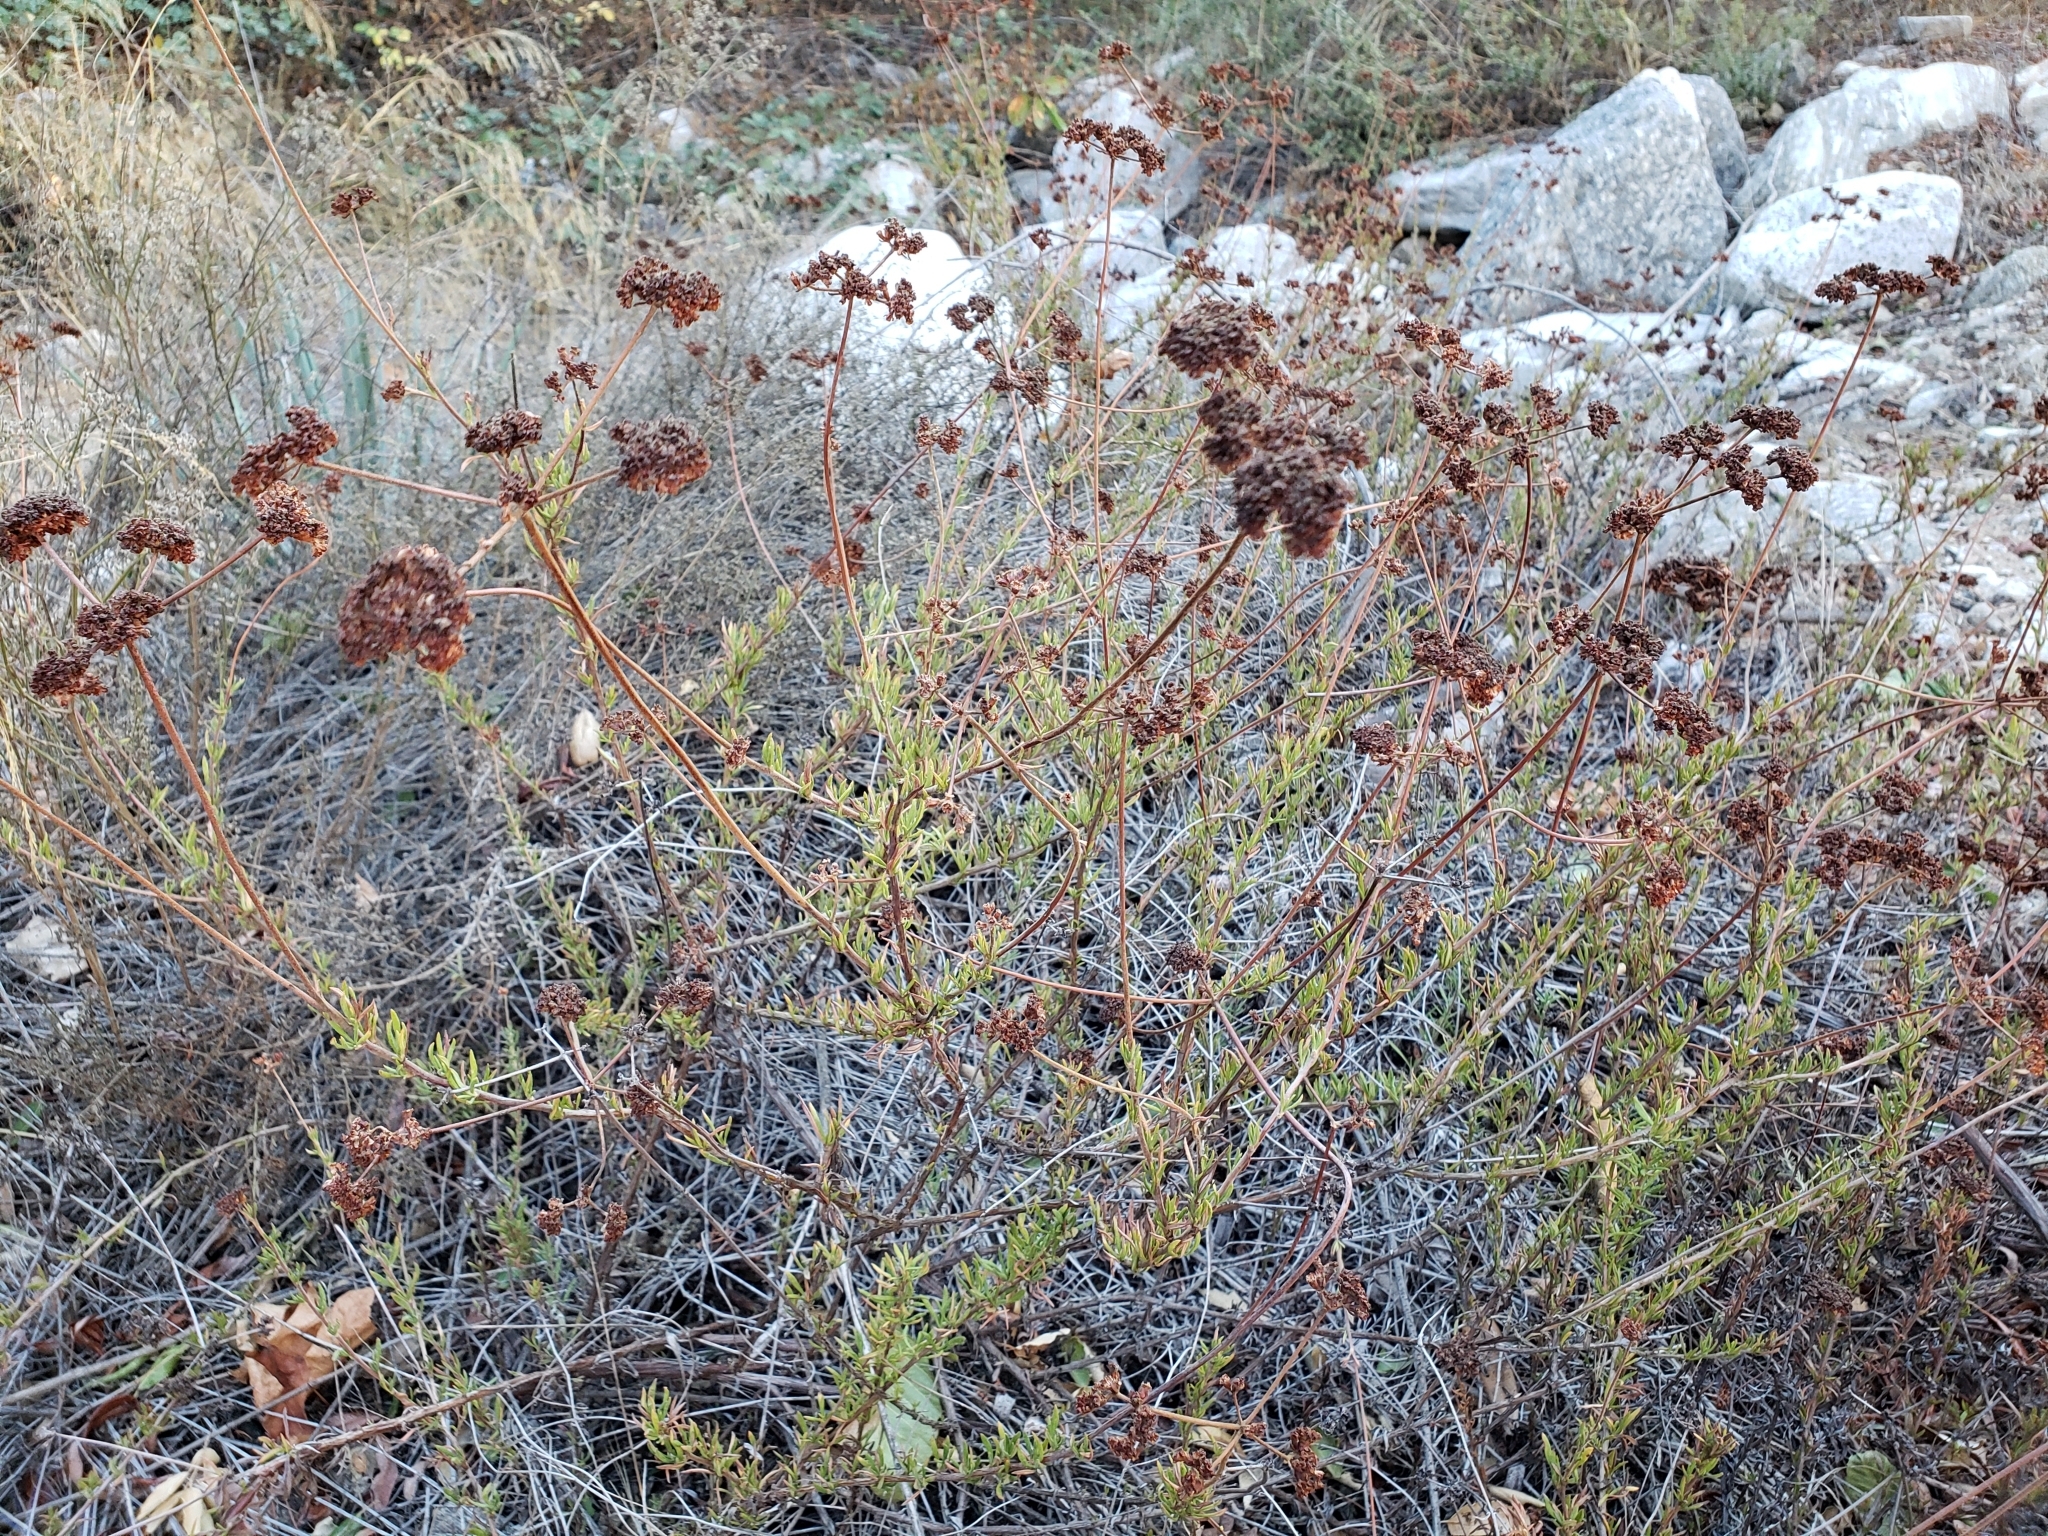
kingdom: Plantae
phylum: Tracheophyta
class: Magnoliopsida
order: Caryophyllales
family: Polygonaceae
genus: Eriogonum
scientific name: Eriogonum fasciculatum
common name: California wild buckwheat
